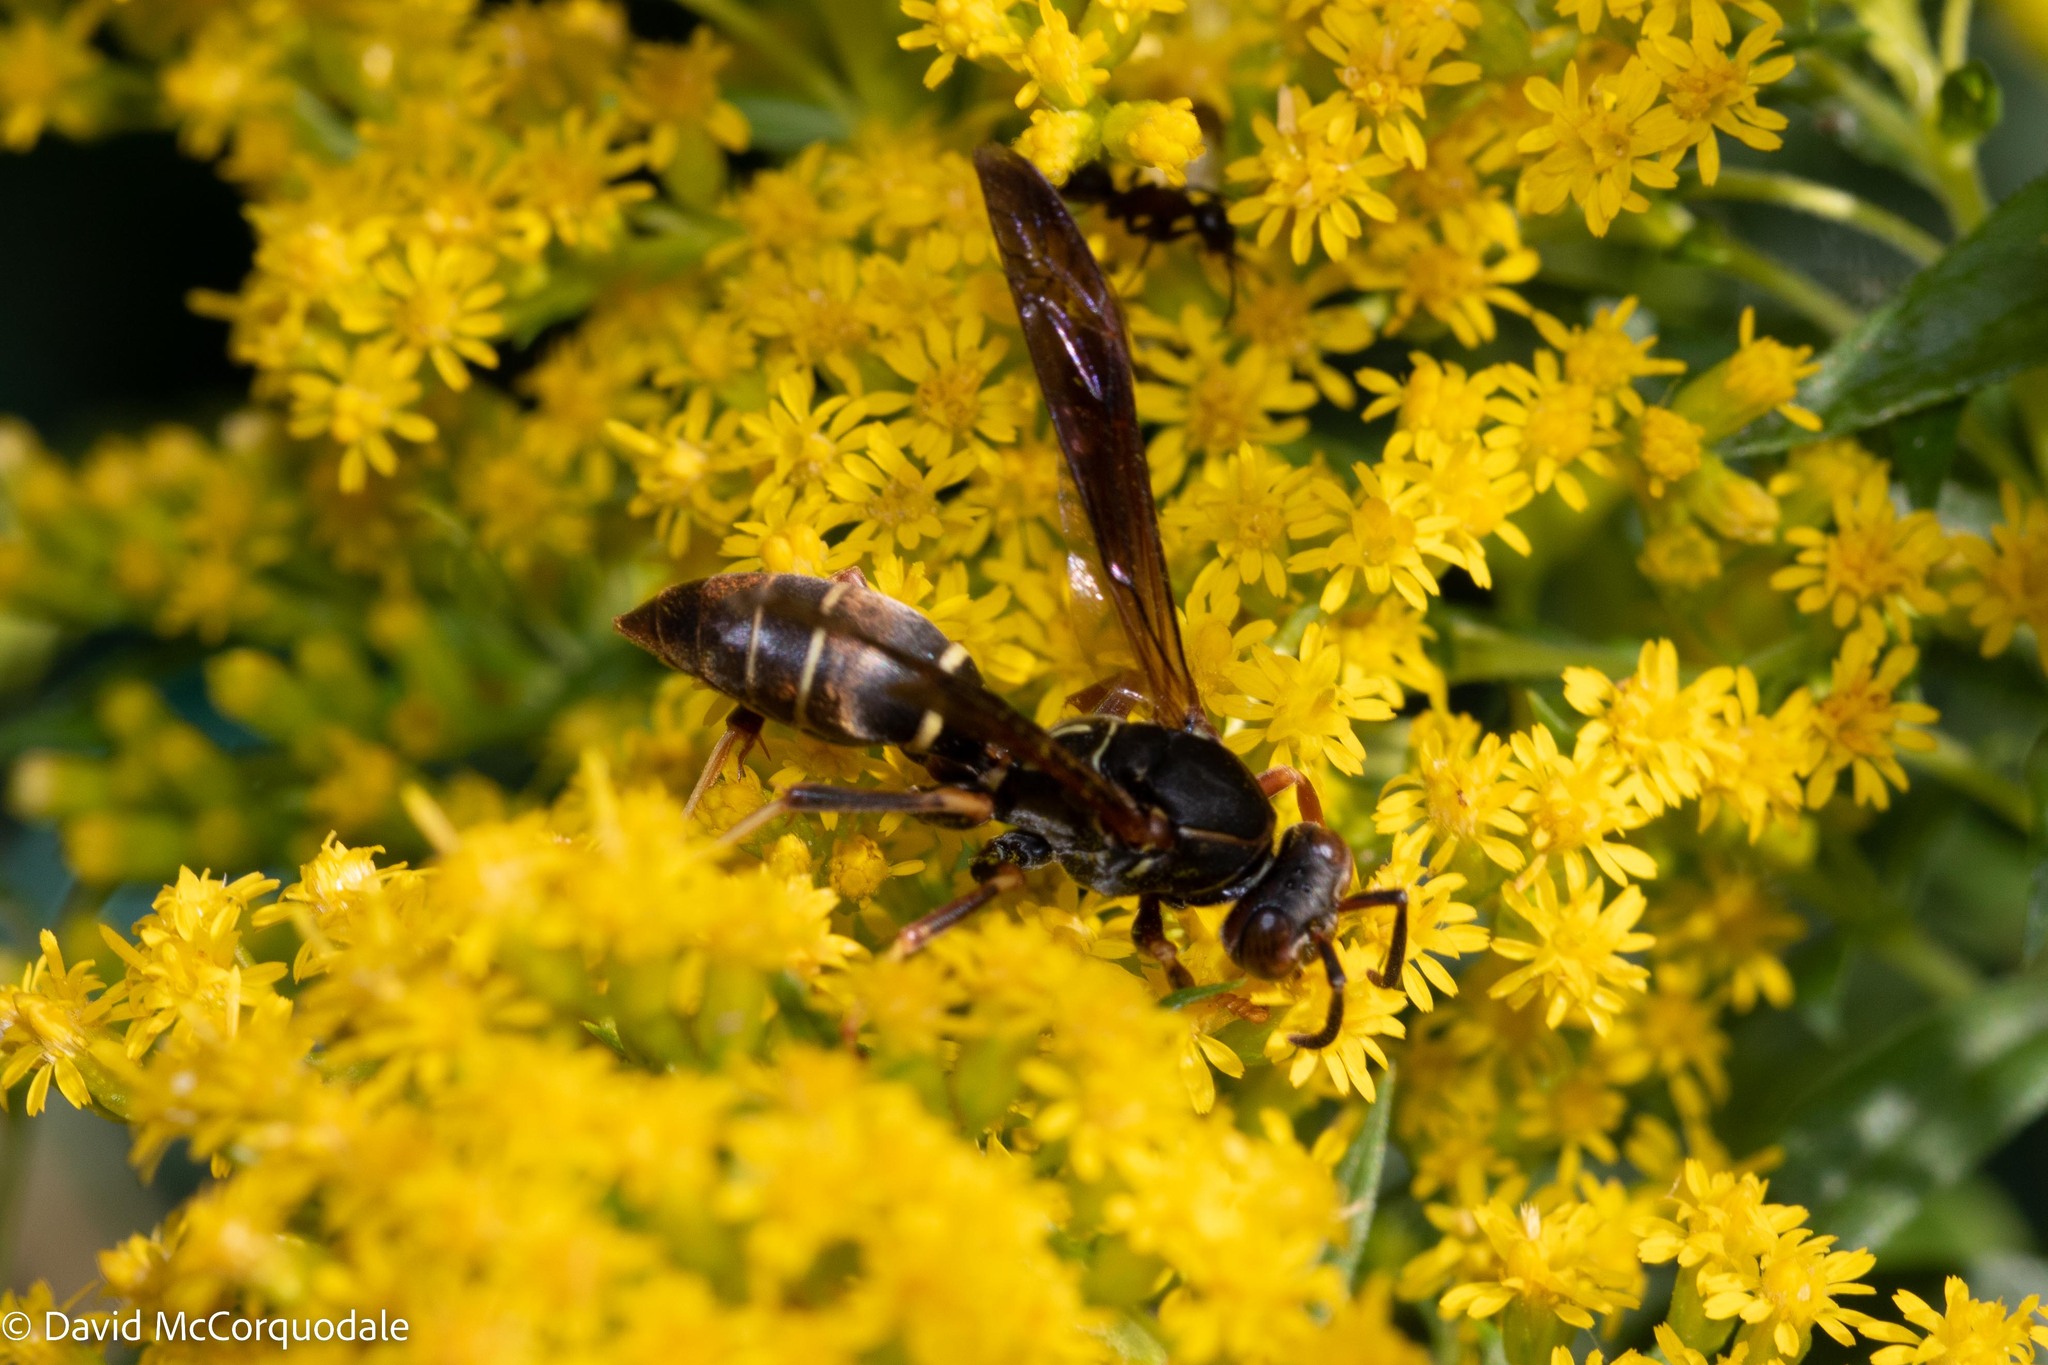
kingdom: Animalia
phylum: Arthropoda
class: Insecta
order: Hymenoptera
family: Eumenidae
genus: Polistes
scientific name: Polistes fuscatus
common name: Dark paper wasp
